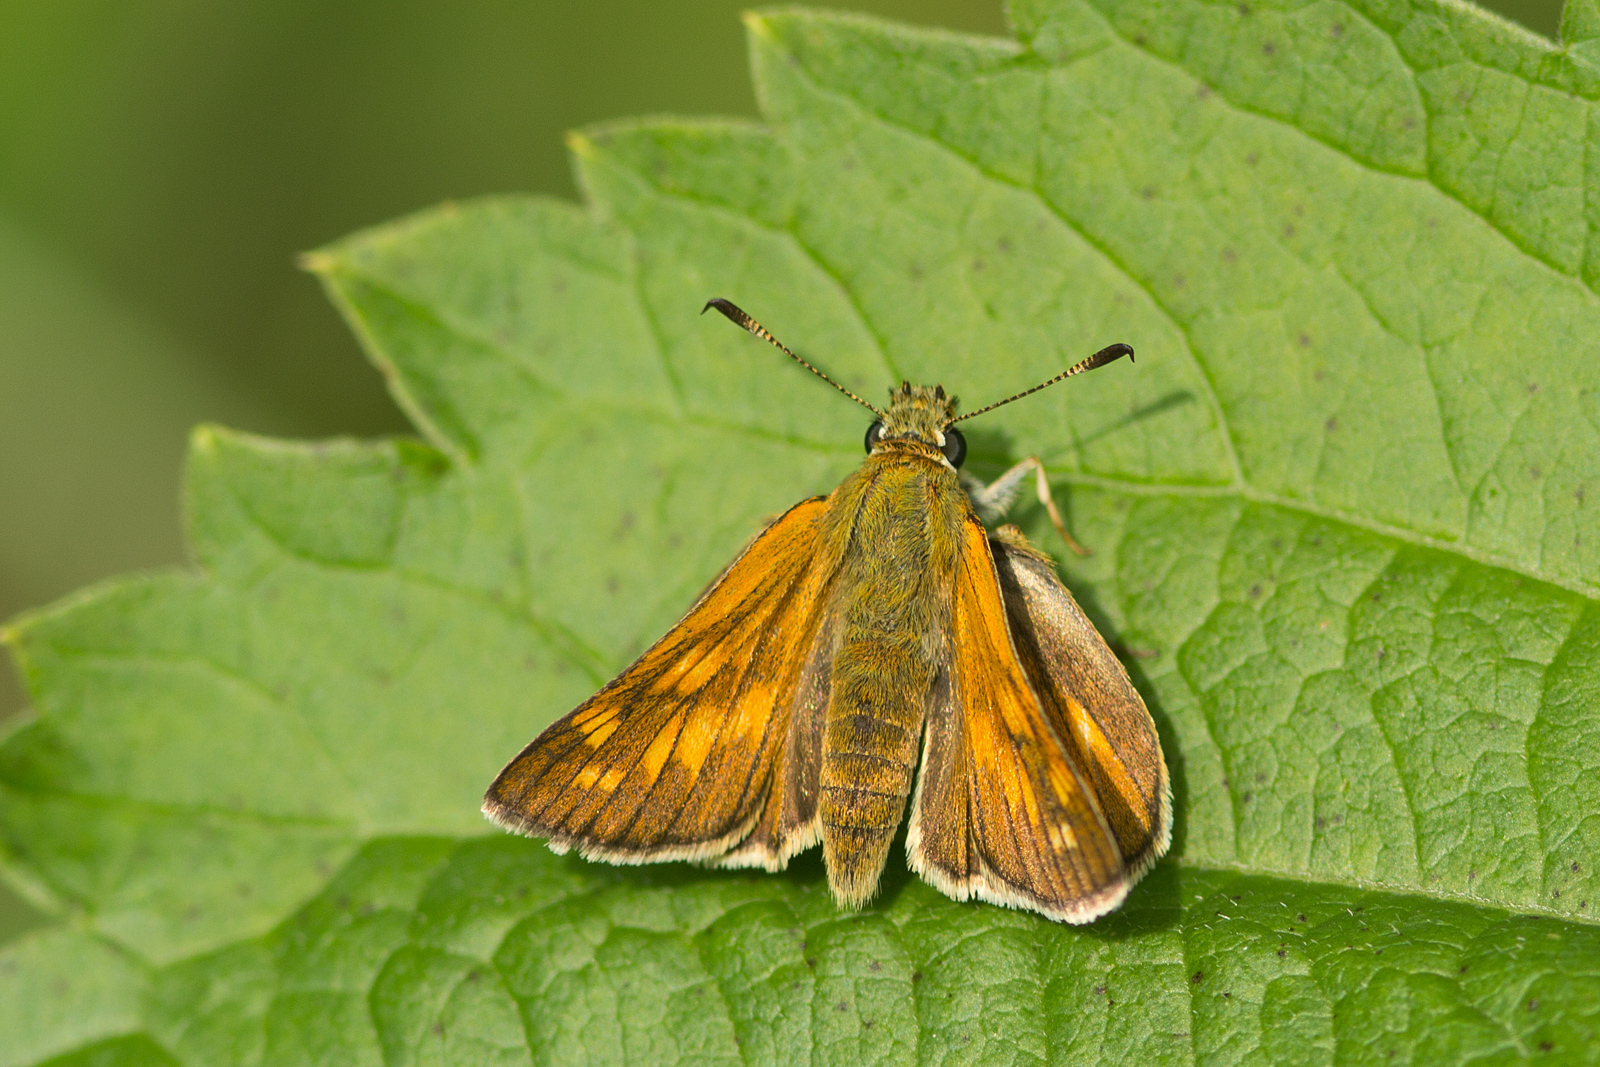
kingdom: Animalia
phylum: Arthropoda
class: Insecta
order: Lepidoptera
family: Hesperiidae
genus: Ochlodes
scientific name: Ochlodes venata
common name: Large skipper
